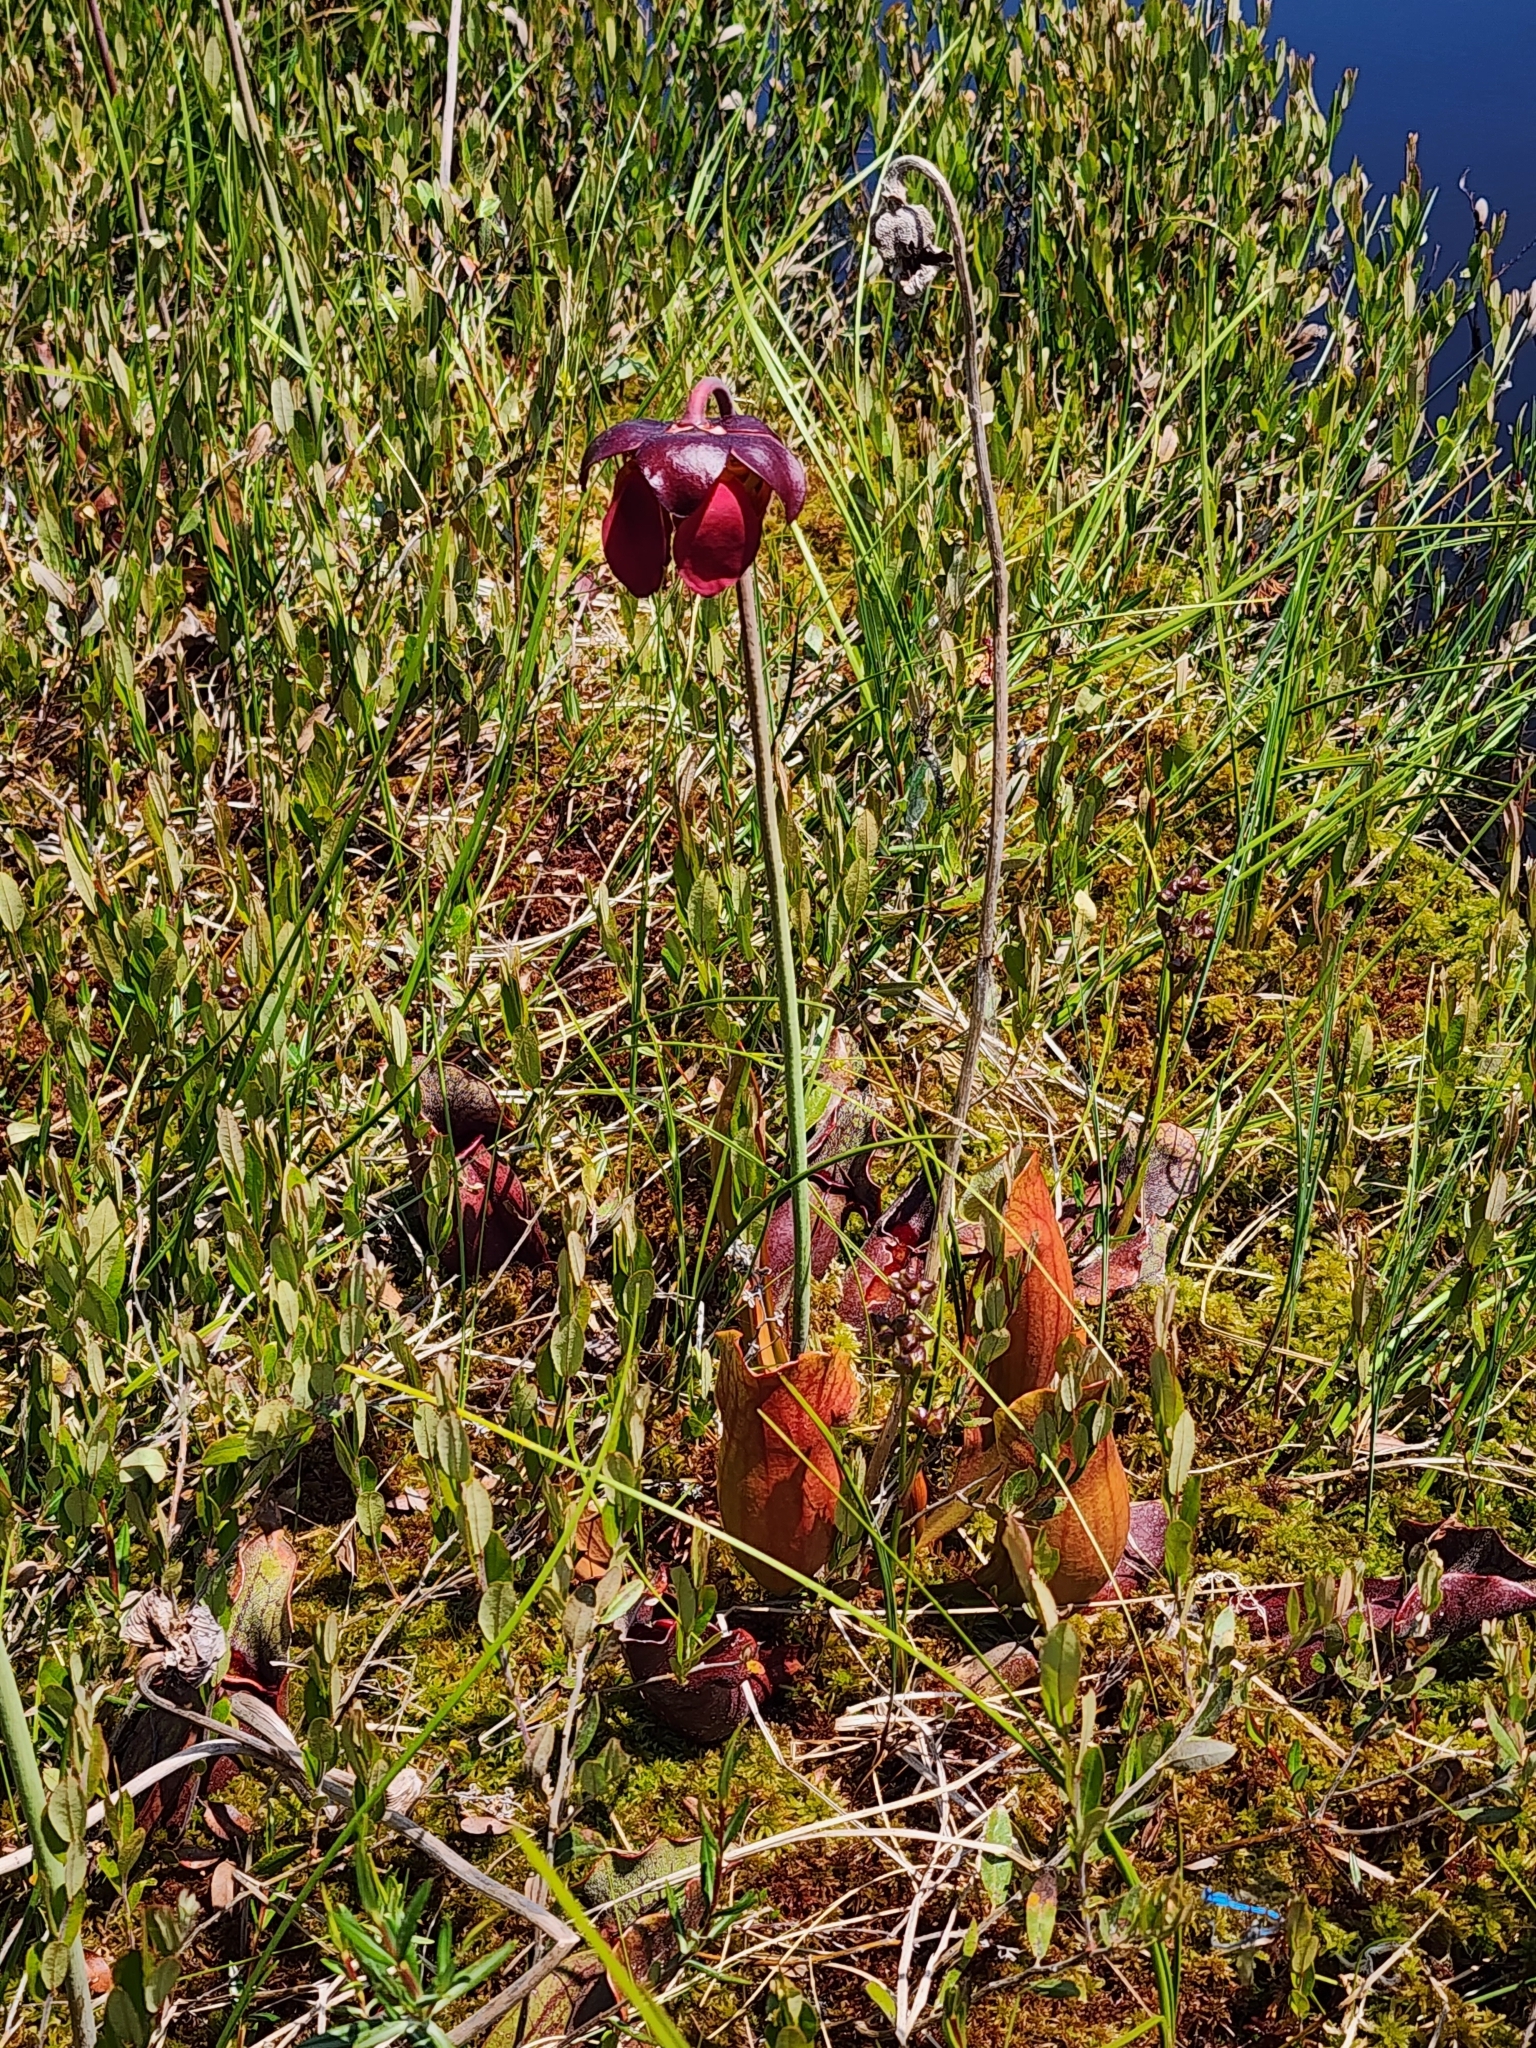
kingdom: Plantae
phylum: Tracheophyta
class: Magnoliopsida
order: Ericales
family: Sarraceniaceae
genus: Sarracenia
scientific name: Sarracenia purpurea
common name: Pitcherplant
